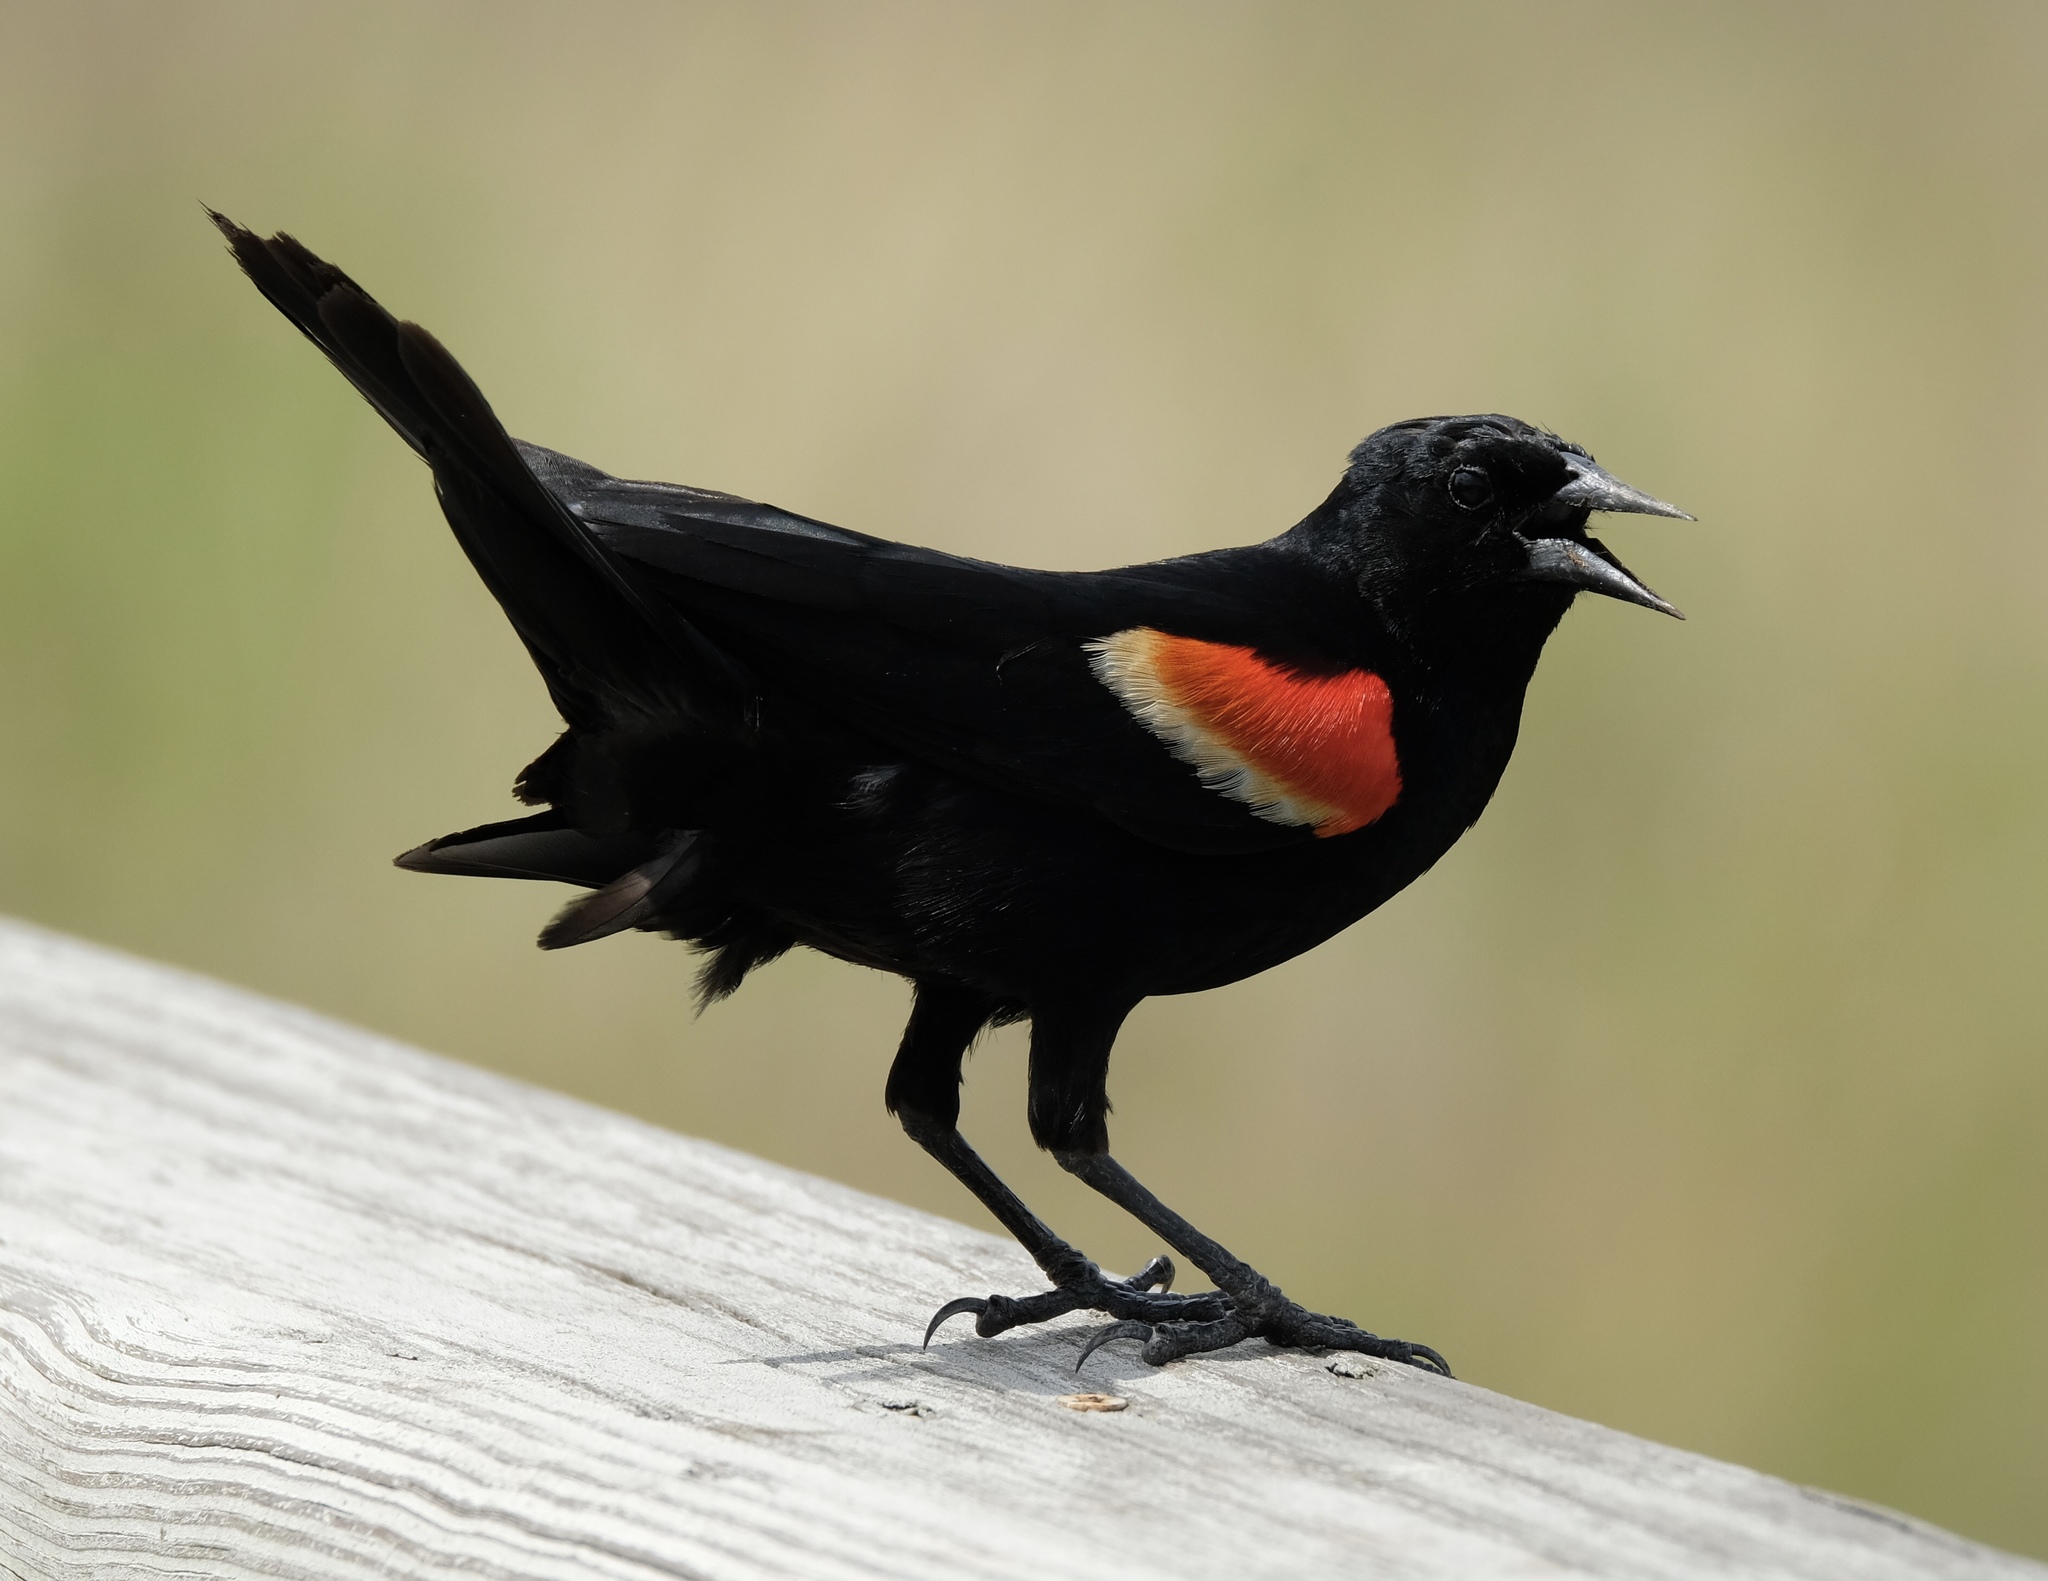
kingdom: Animalia
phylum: Chordata
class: Aves
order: Passeriformes
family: Icteridae
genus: Agelaius
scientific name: Agelaius phoeniceus
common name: Red-winged blackbird
